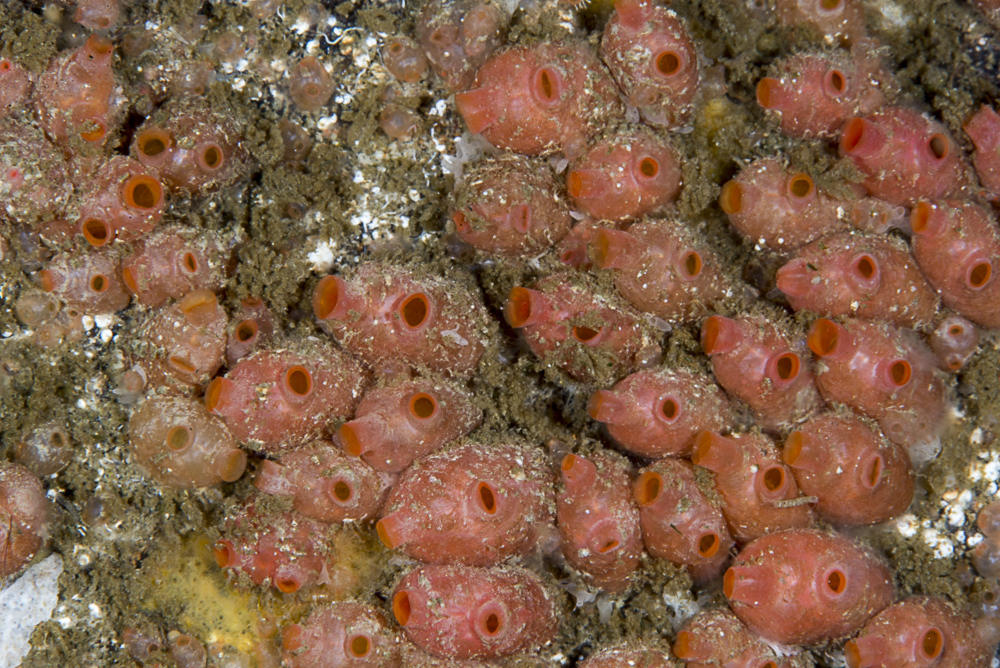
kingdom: Animalia
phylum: Chordata
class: Ascidiacea
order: Stolidobranchia
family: Styelidae
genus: Dendrodoa
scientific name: Dendrodoa grossularia
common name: Baked bean ascidian
